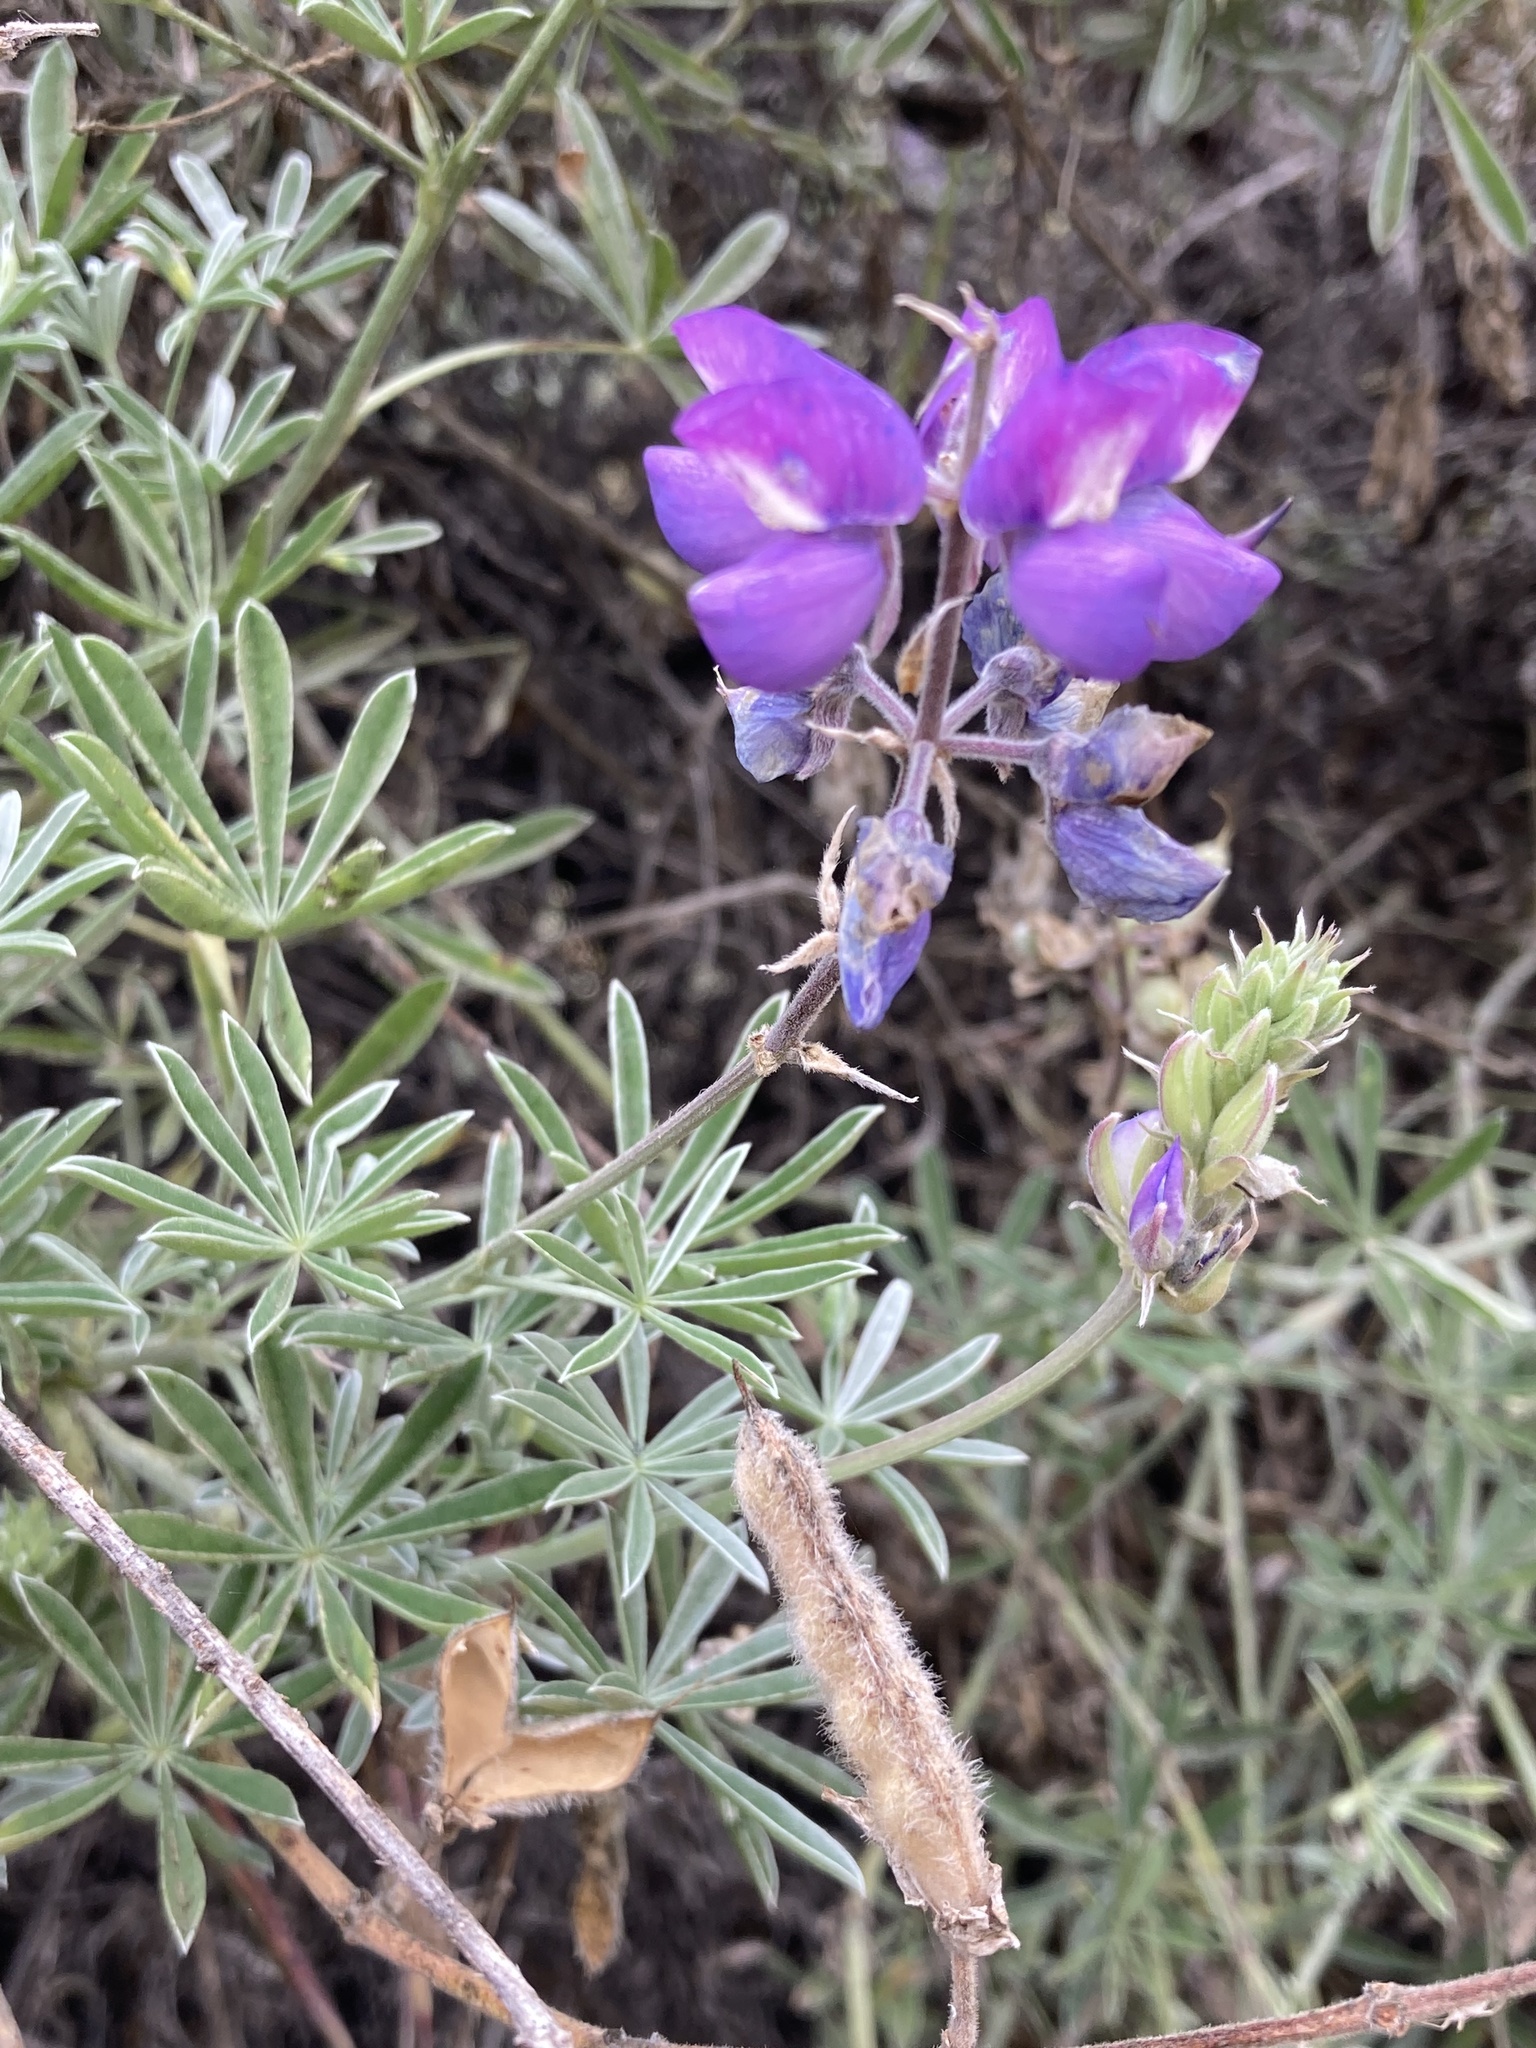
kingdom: Plantae
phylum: Tracheophyta
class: Magnoliopsida
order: Fabales
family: Fabaceae
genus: Lupinus
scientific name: Lupinus albifrons
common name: Foothill lupine
